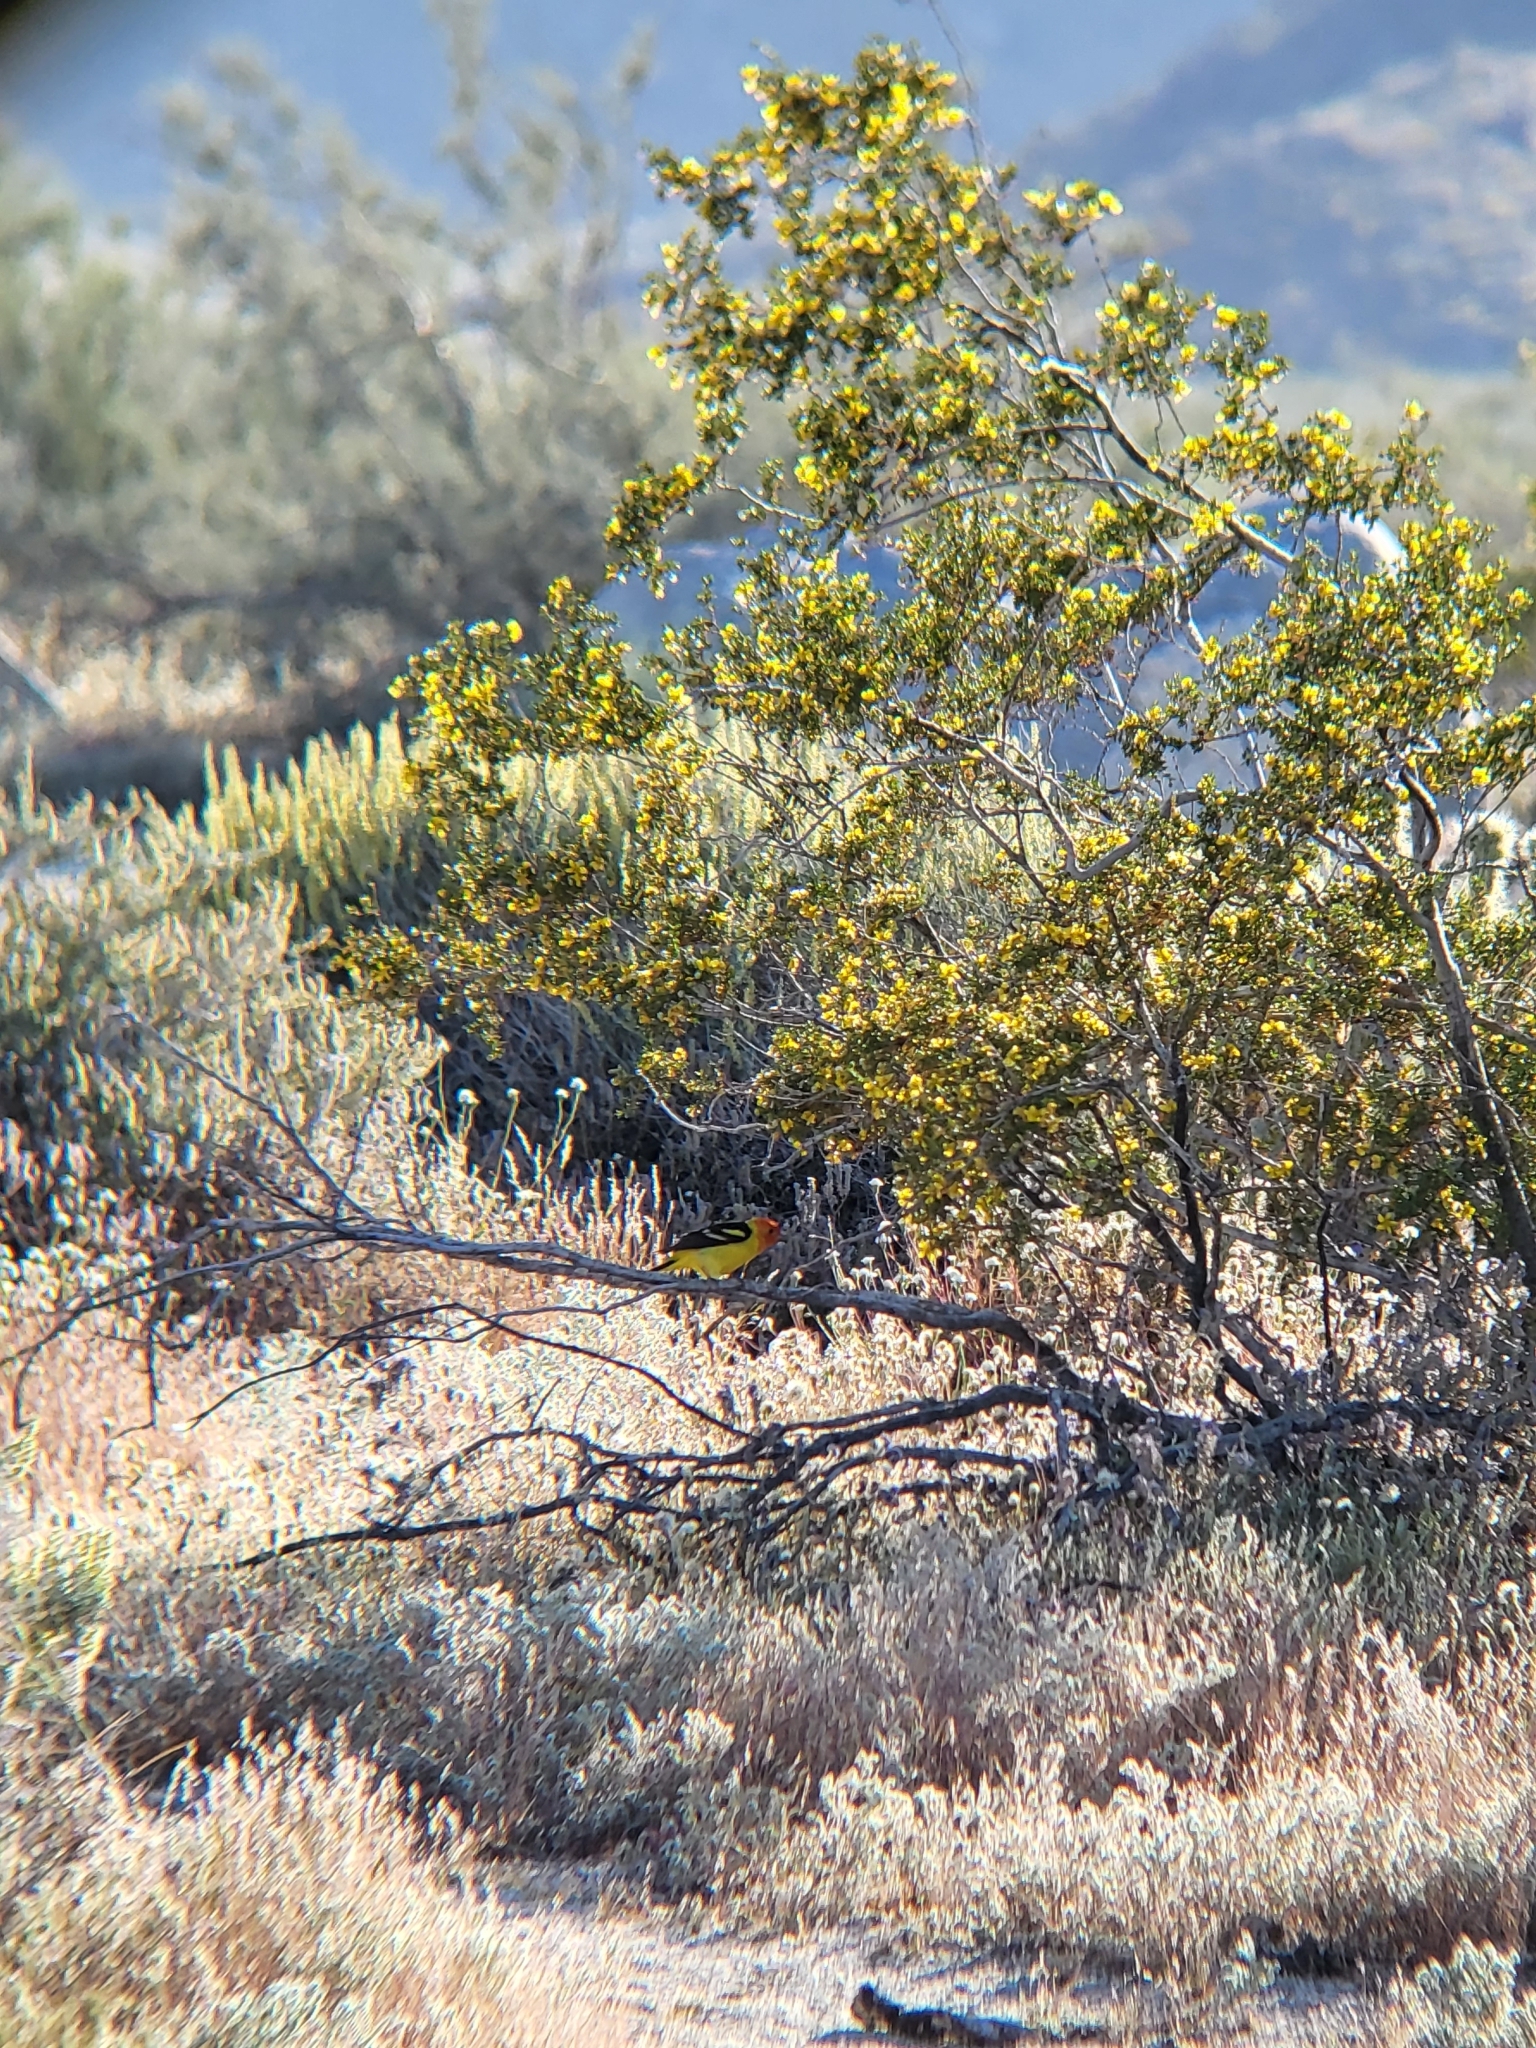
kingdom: Animalia
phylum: Chordata
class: Aves
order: Passeriformes
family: Cardinalidae
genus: Piranga
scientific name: Piranga ludoviciana
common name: Western tanager
